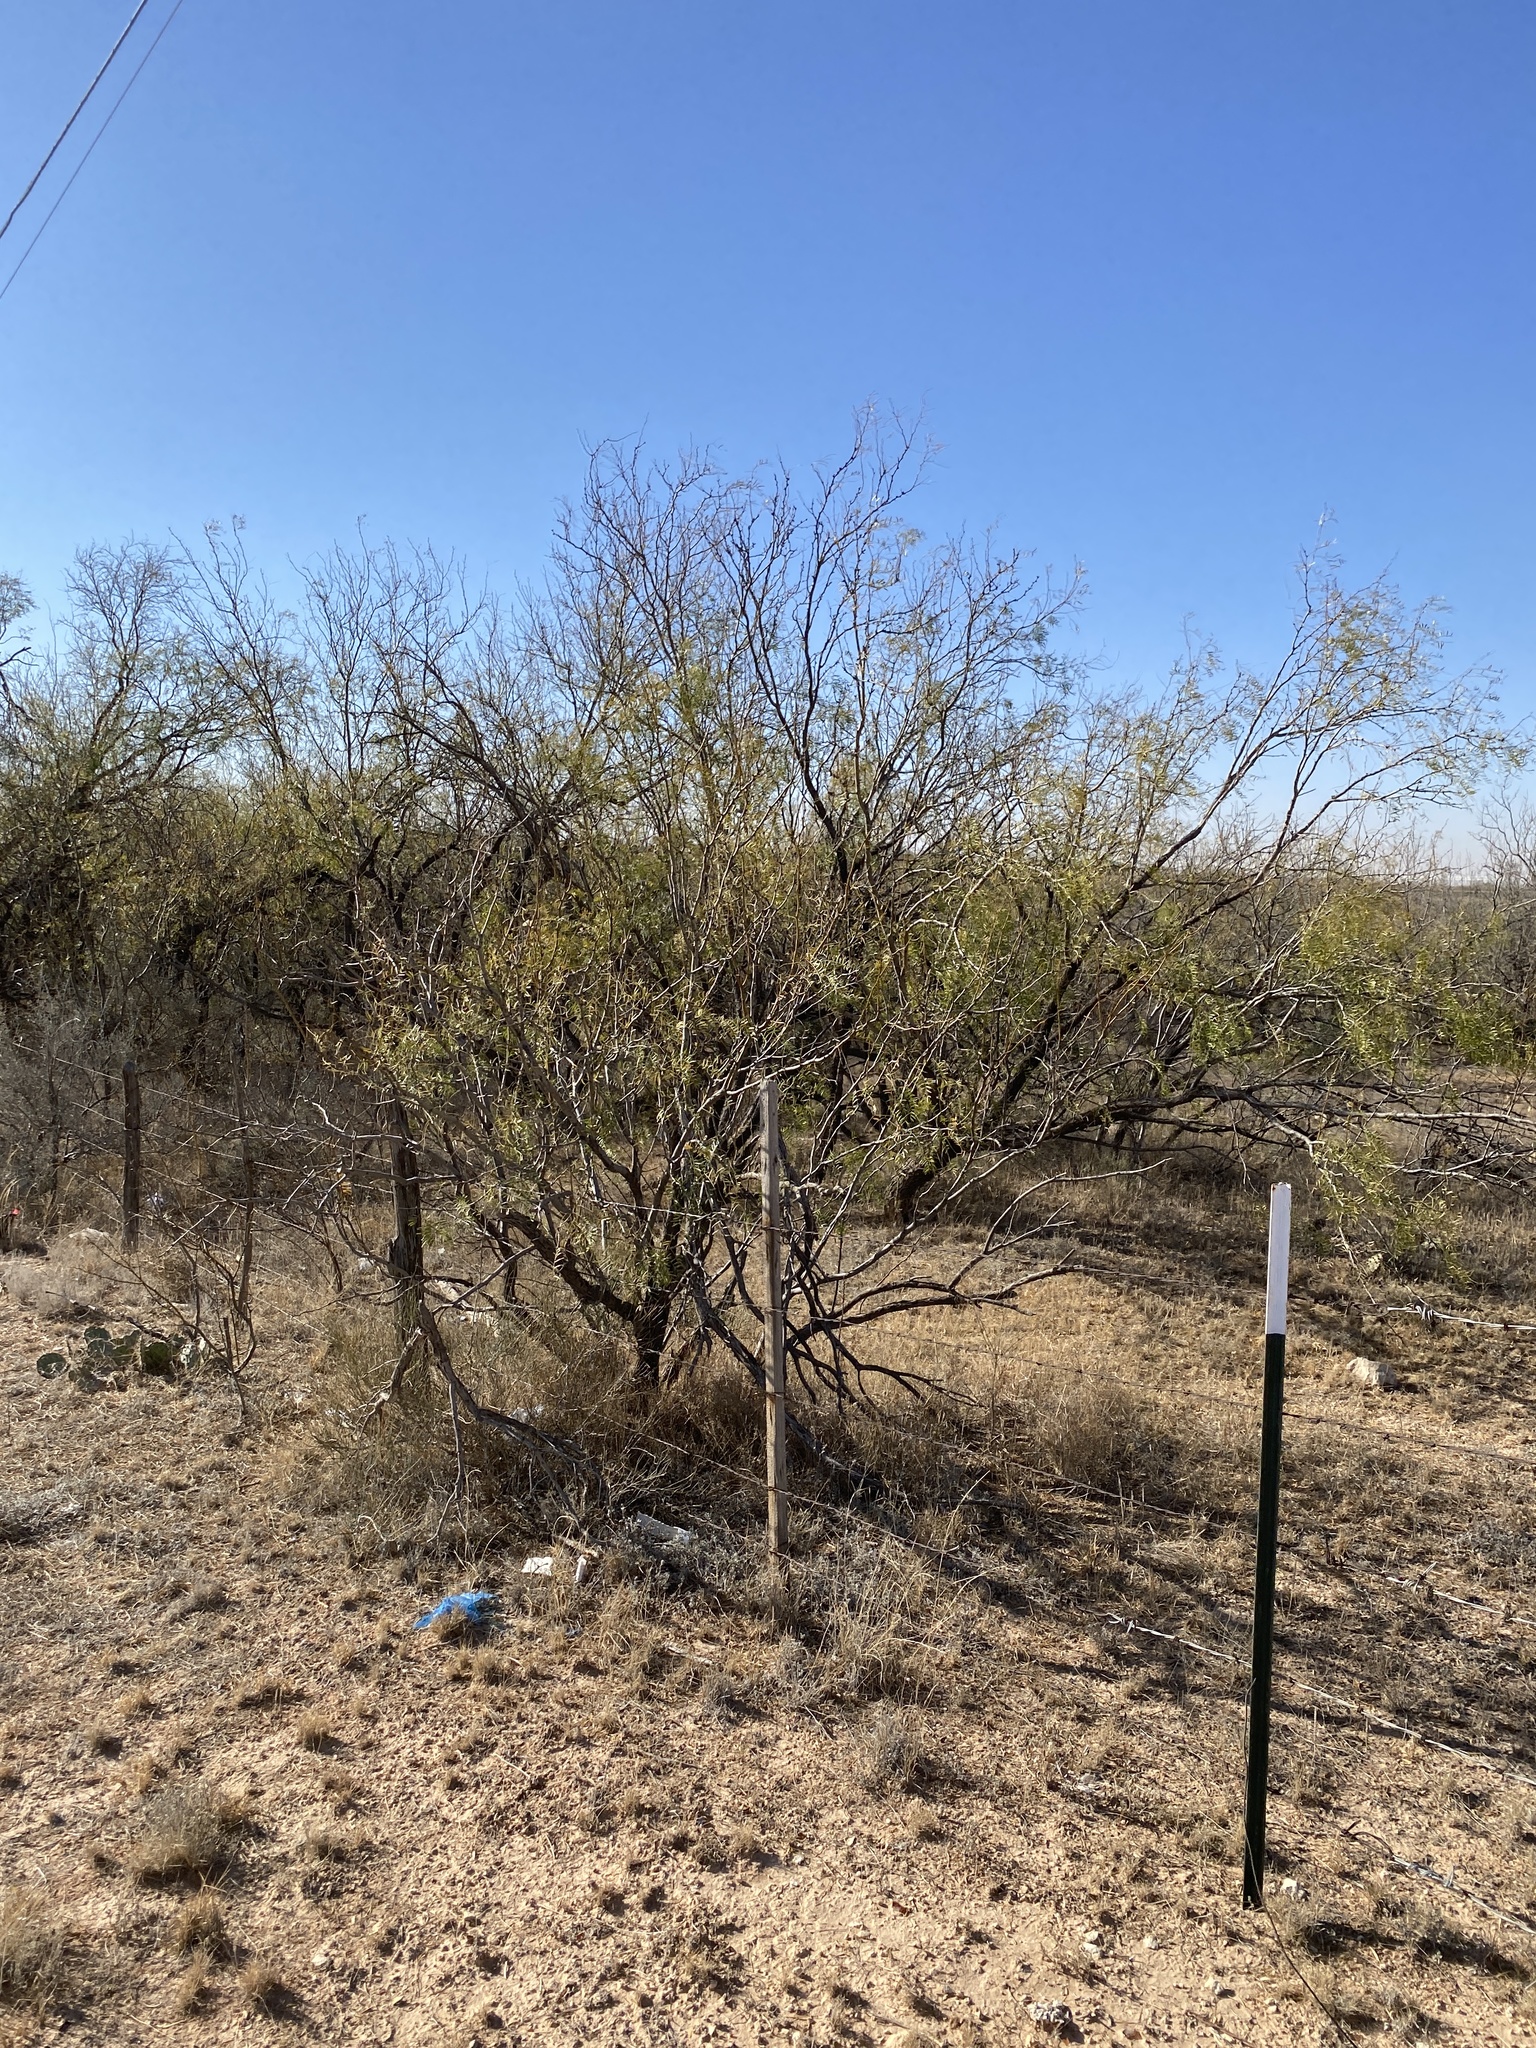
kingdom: Plantae
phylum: Tracheophyta
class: Magnoliopsida
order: Fabales
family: Fabaceae
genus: Prosopis
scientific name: Prosopis glandulosa
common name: Honey mesquite
